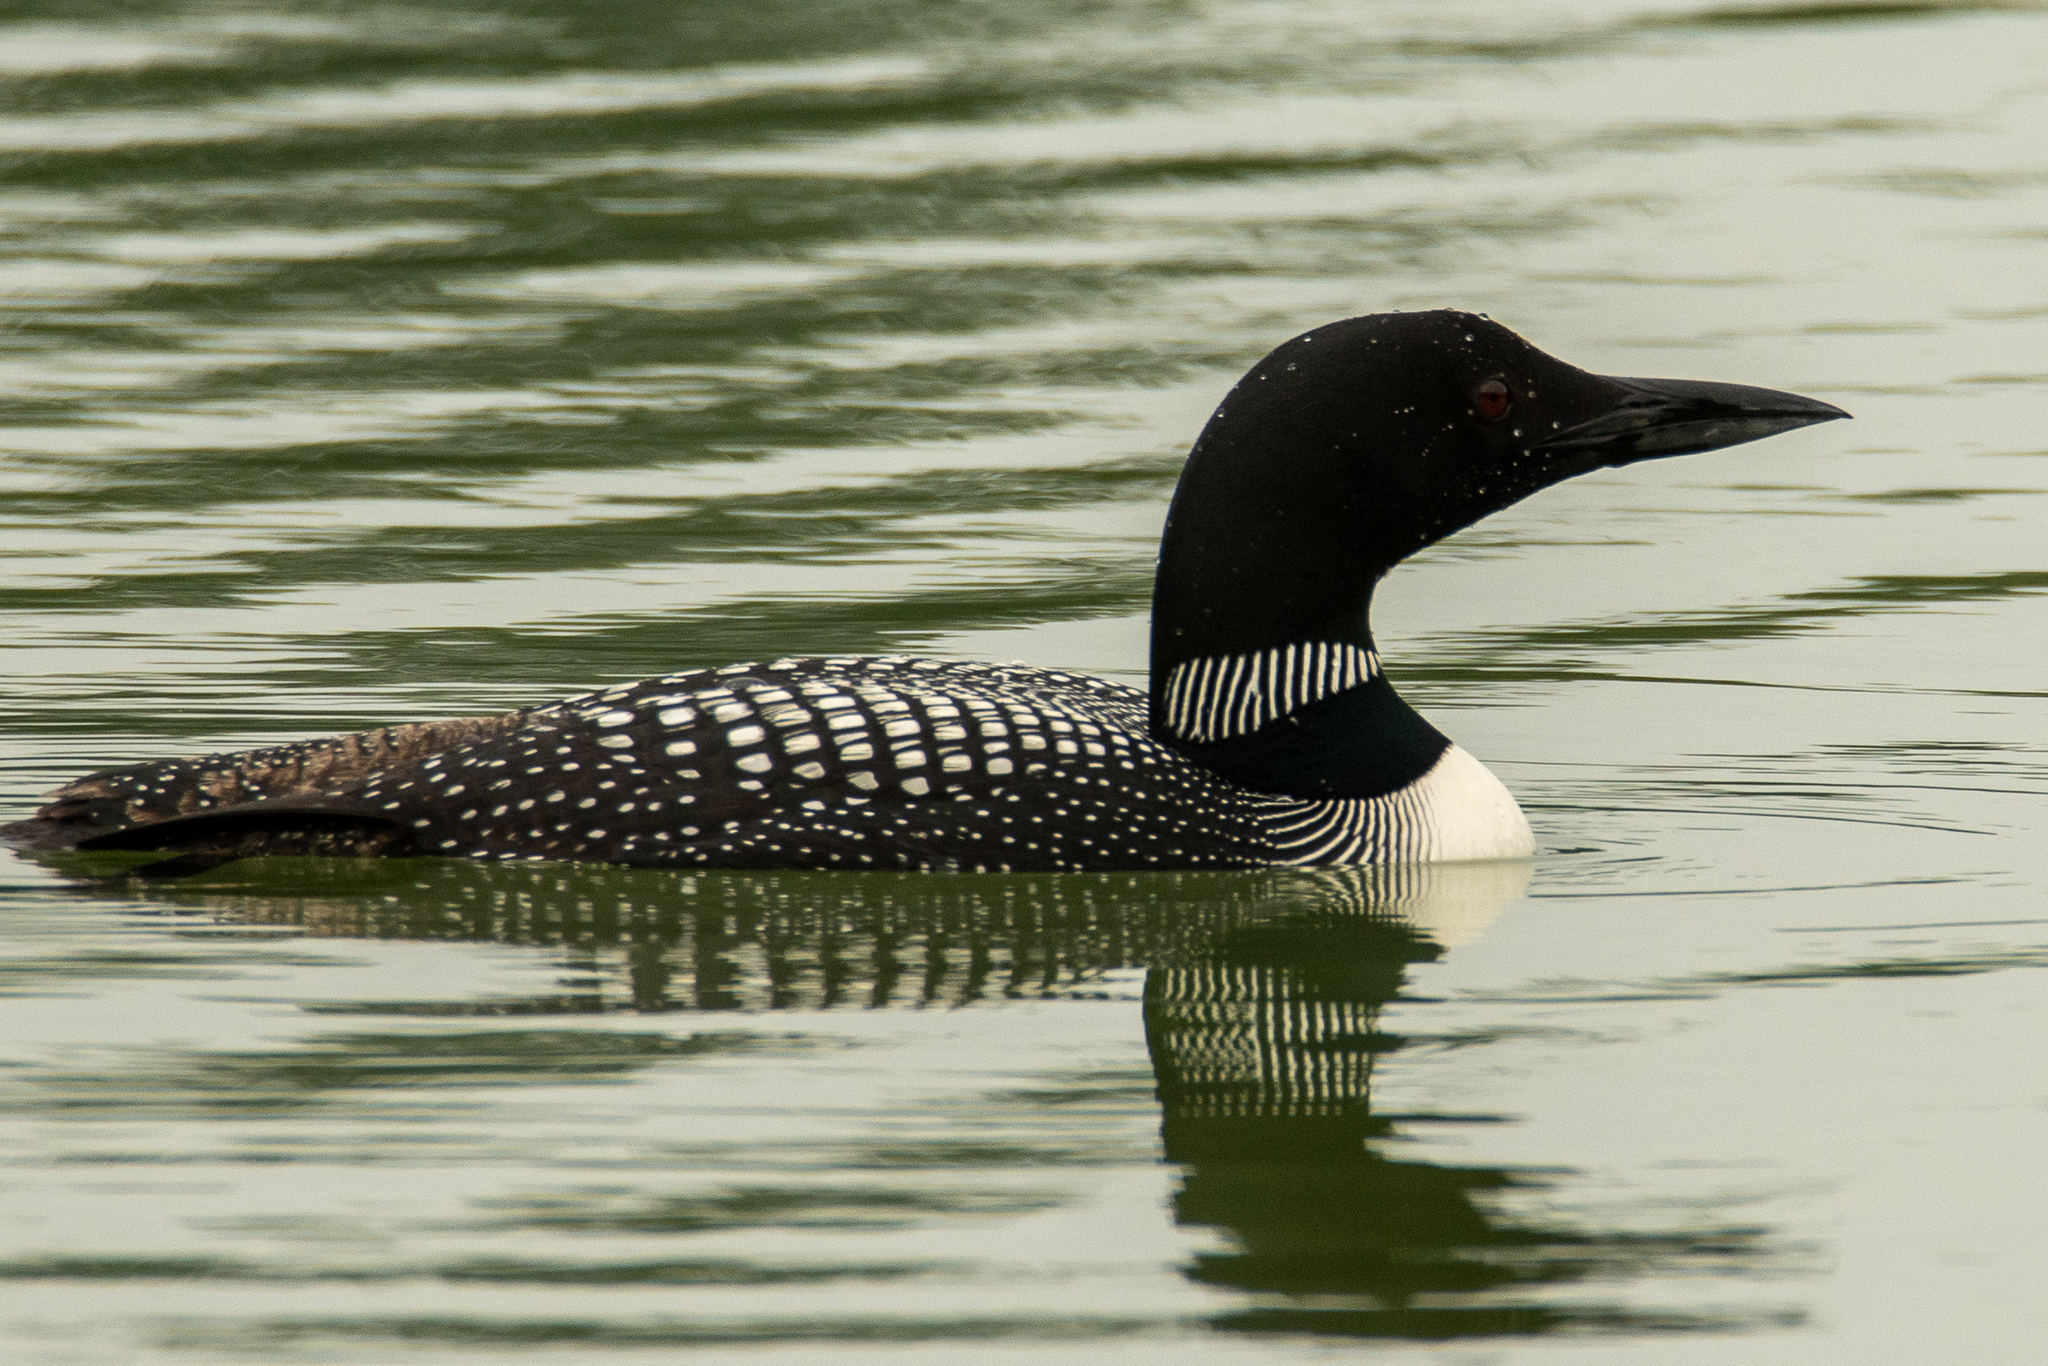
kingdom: Animalia
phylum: Chordata
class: Aves
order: Gaviiformes
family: Gaviidae
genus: Gavia
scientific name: Gavia immer
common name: Common loon
